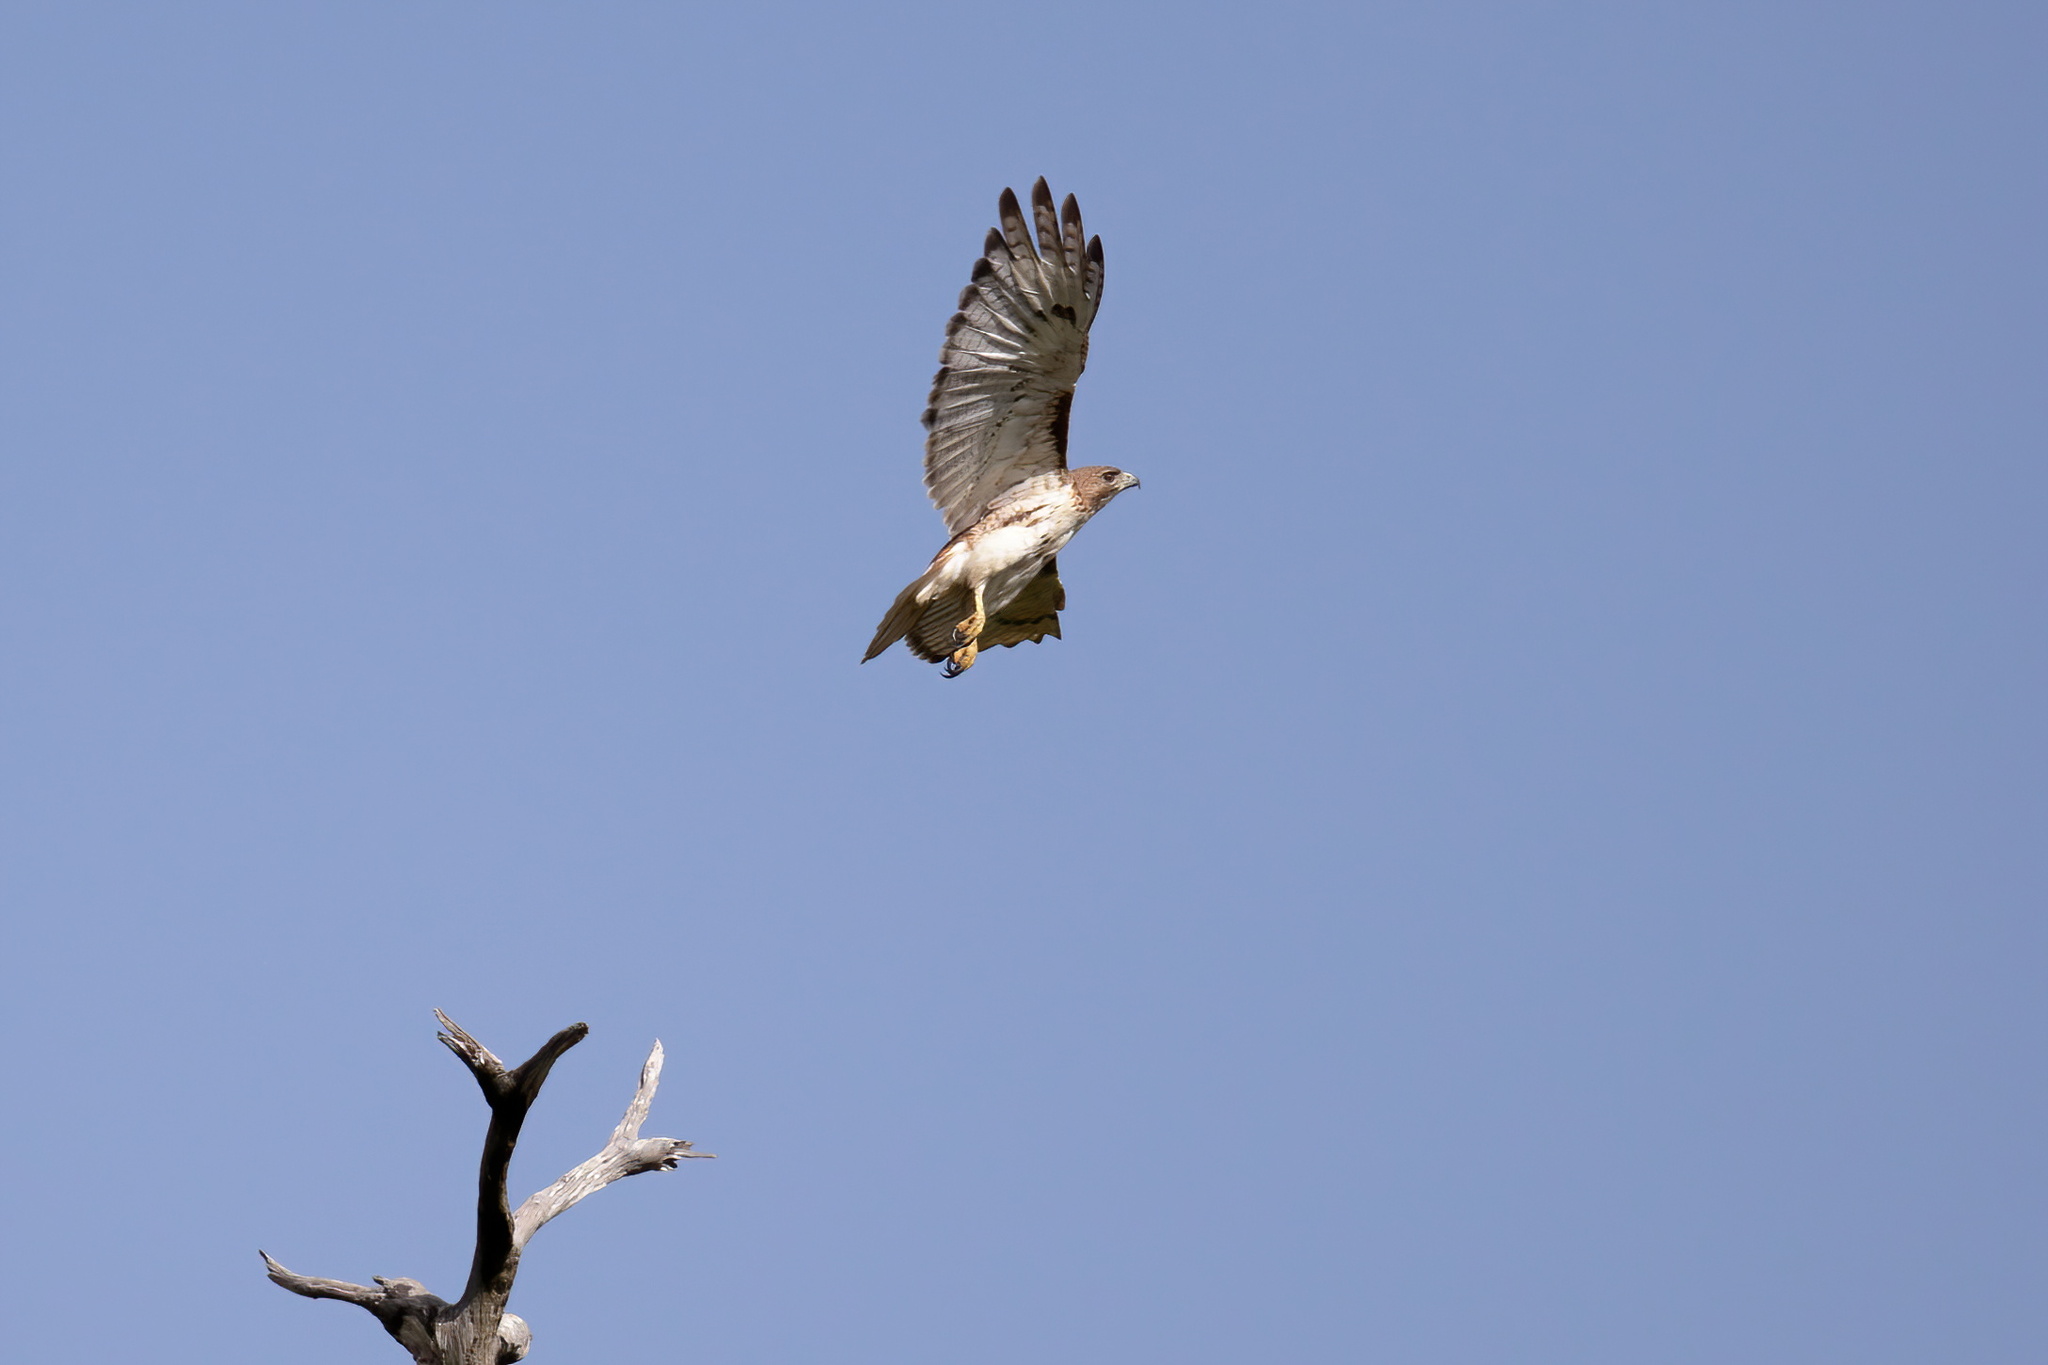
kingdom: Animalia
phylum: Chordata
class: Aves
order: Accipitriformes
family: Accipitridae
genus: Buteo
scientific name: Buteo jamaicensis
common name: Red-tailed hawk
